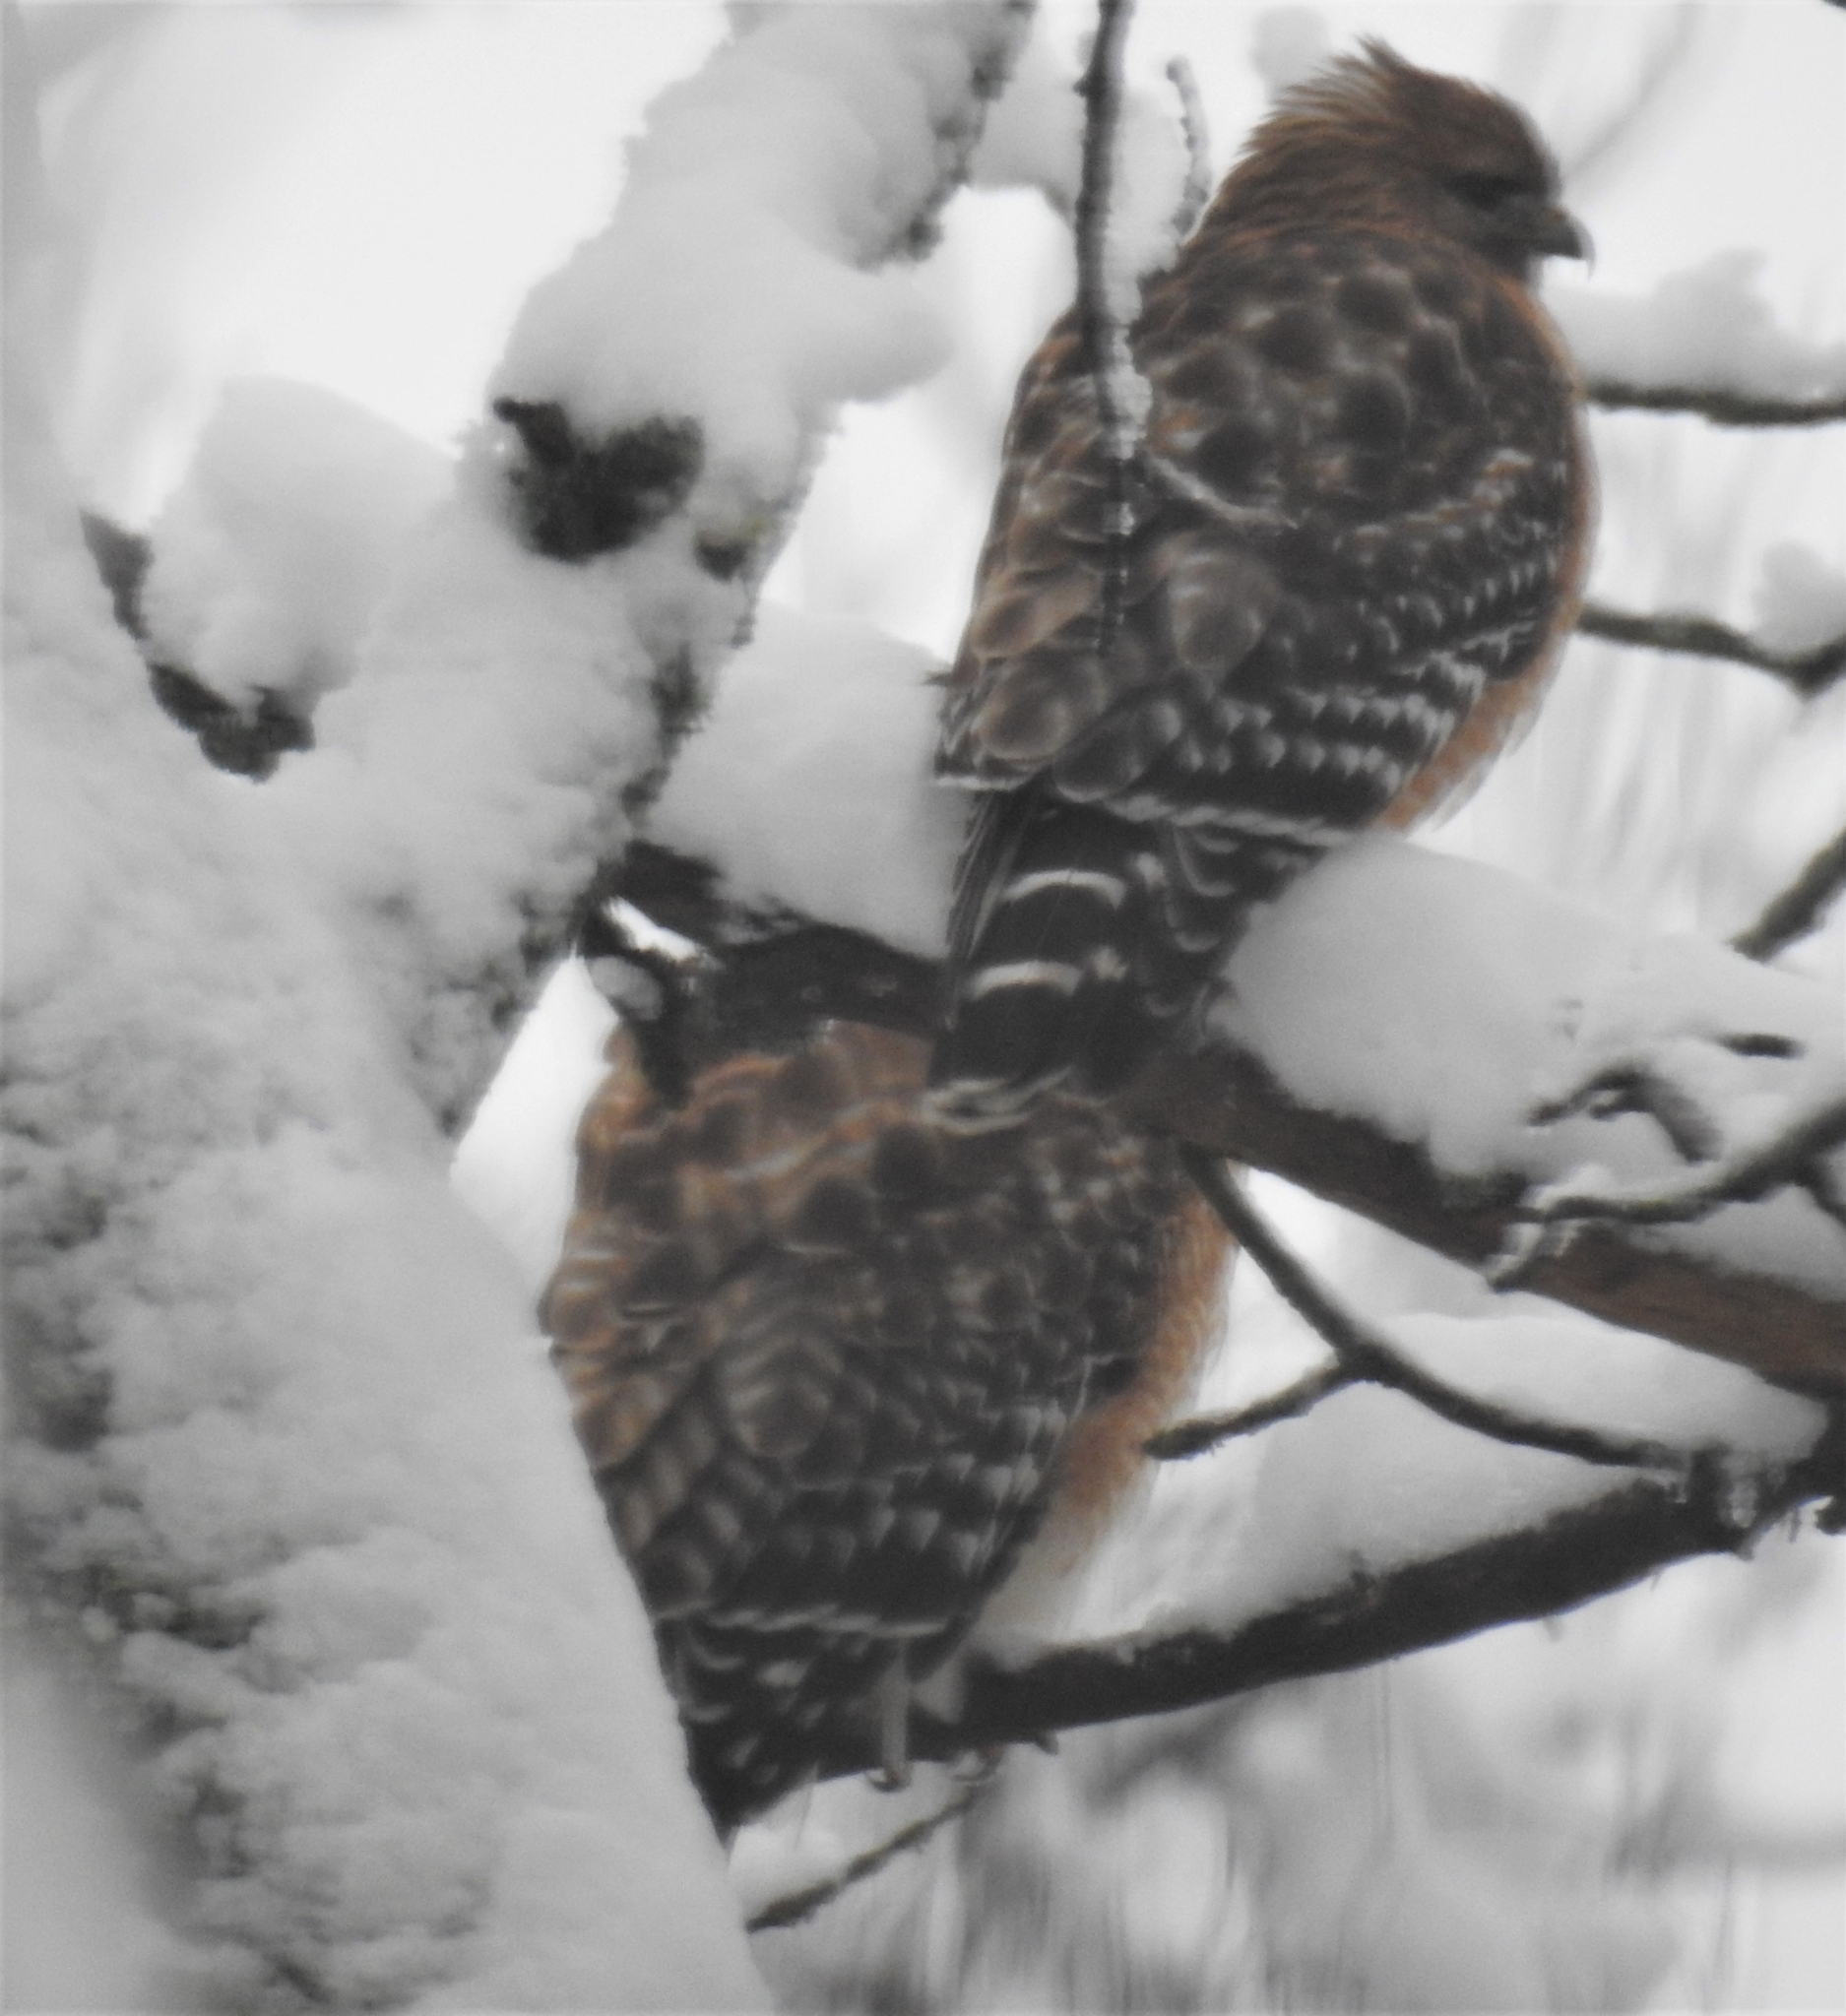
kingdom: Animalia
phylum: Chordata
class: Aves
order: Accipitriformes
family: Accipitridae
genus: Buteo
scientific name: Buteo lineatus
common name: Red-shouldered hawk
